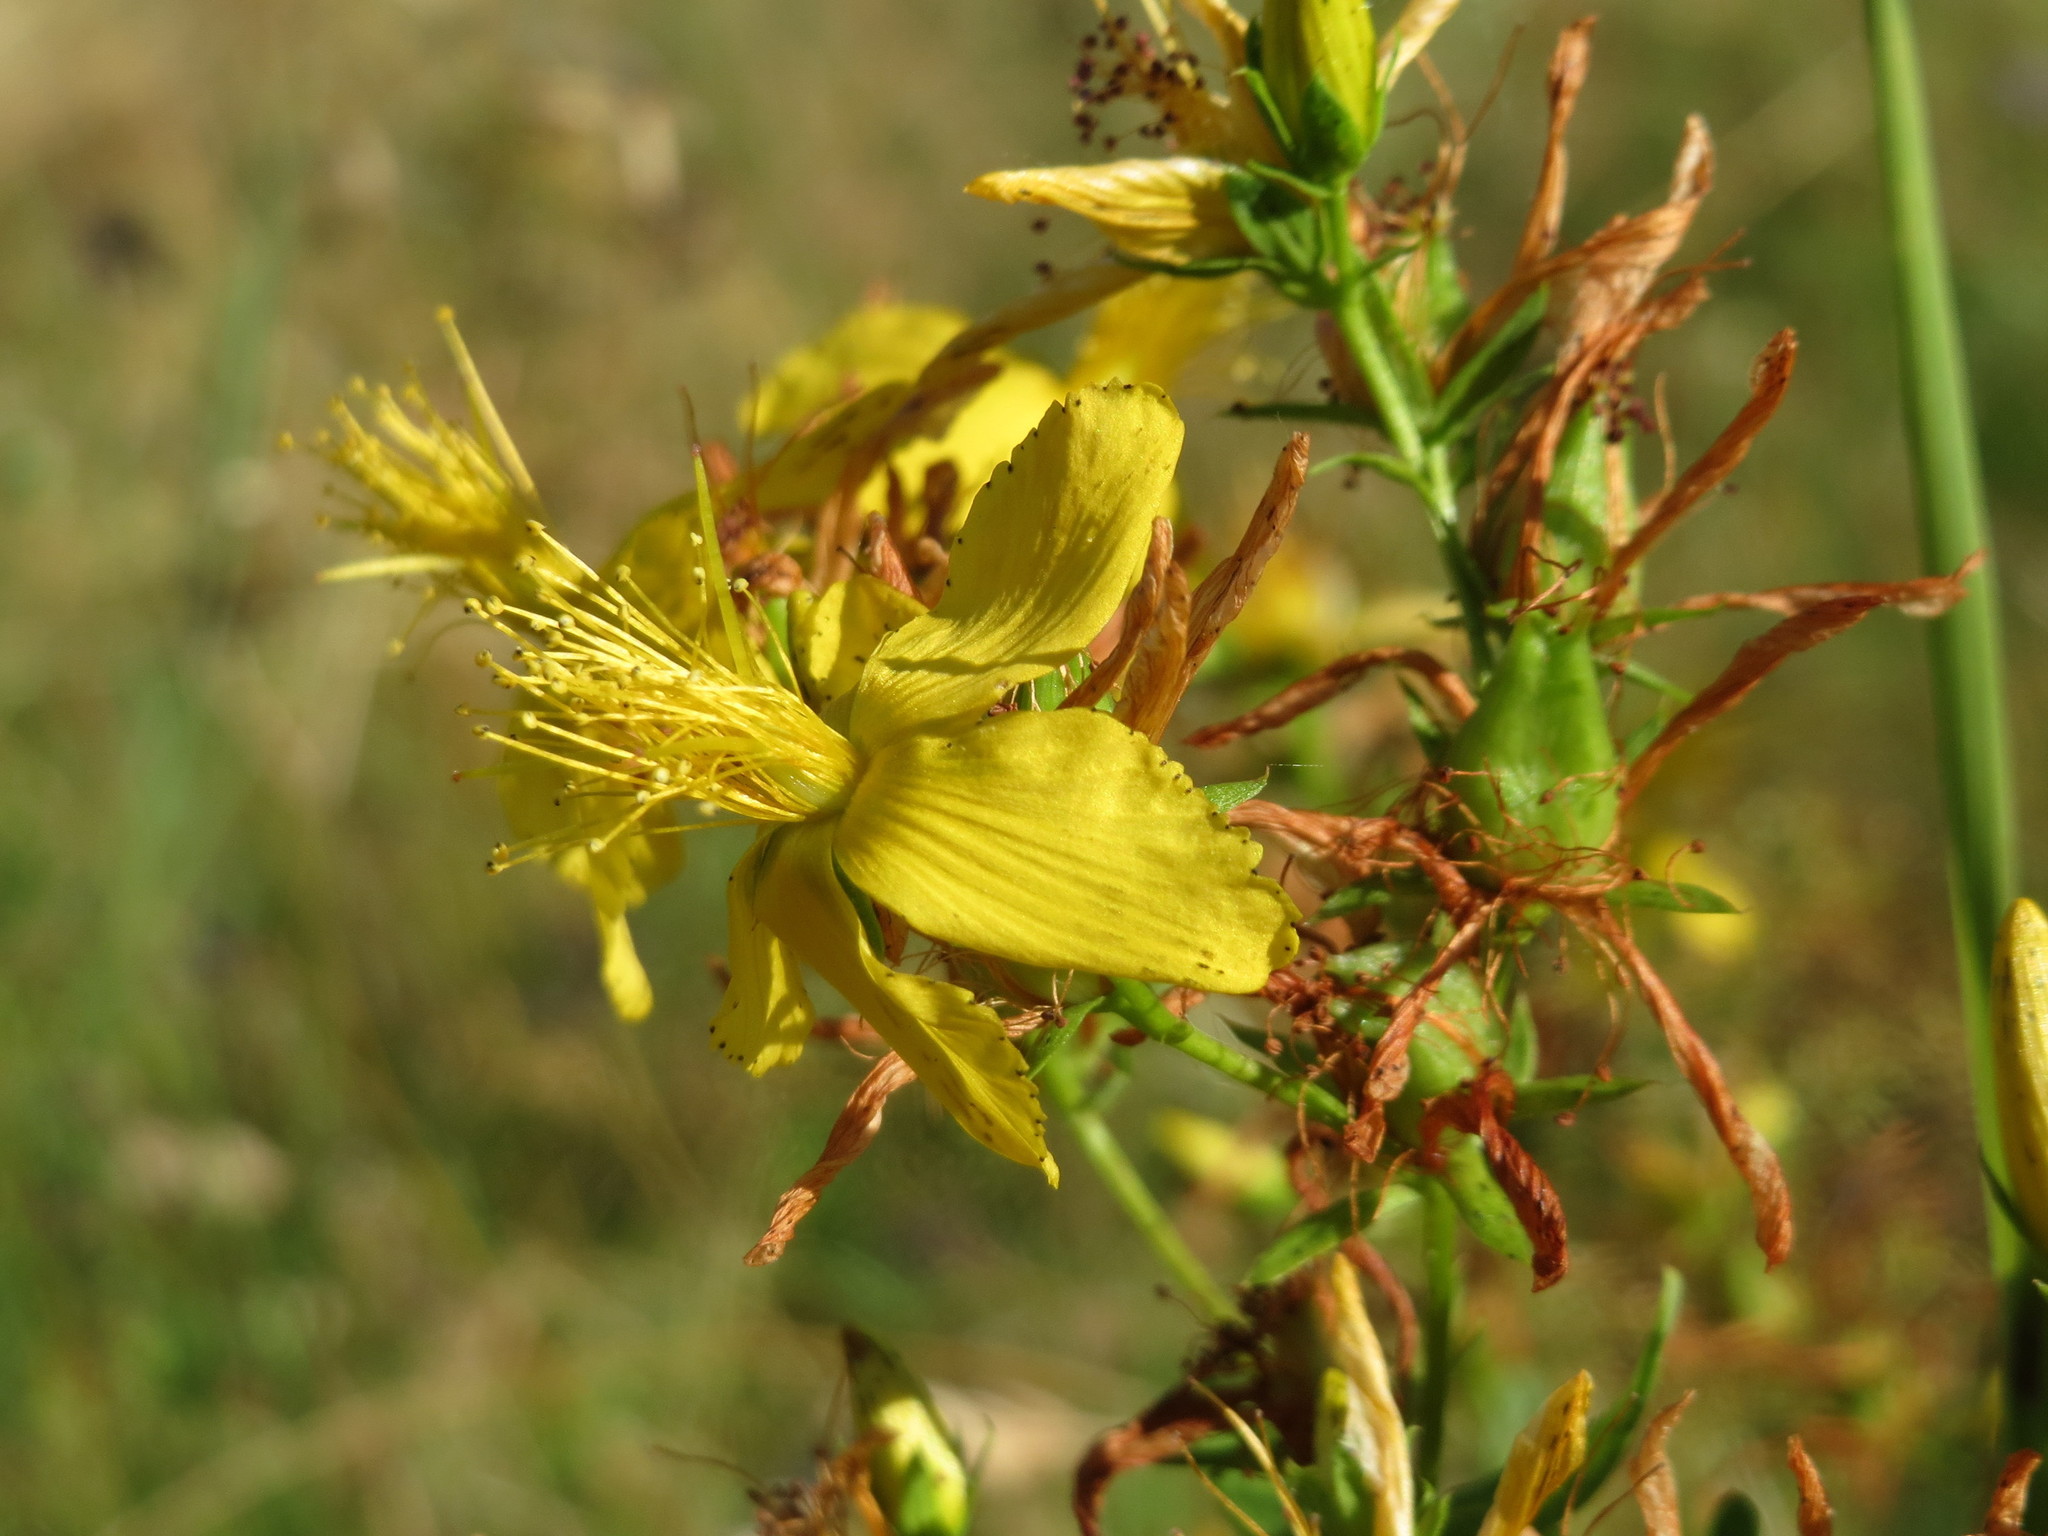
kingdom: Plantae
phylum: Tracheophyta
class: Magnoliopsida
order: Malpighiales
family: Hypericaceae
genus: Hypericum
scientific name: Hypericum perforatum
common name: Common st. johnswort
